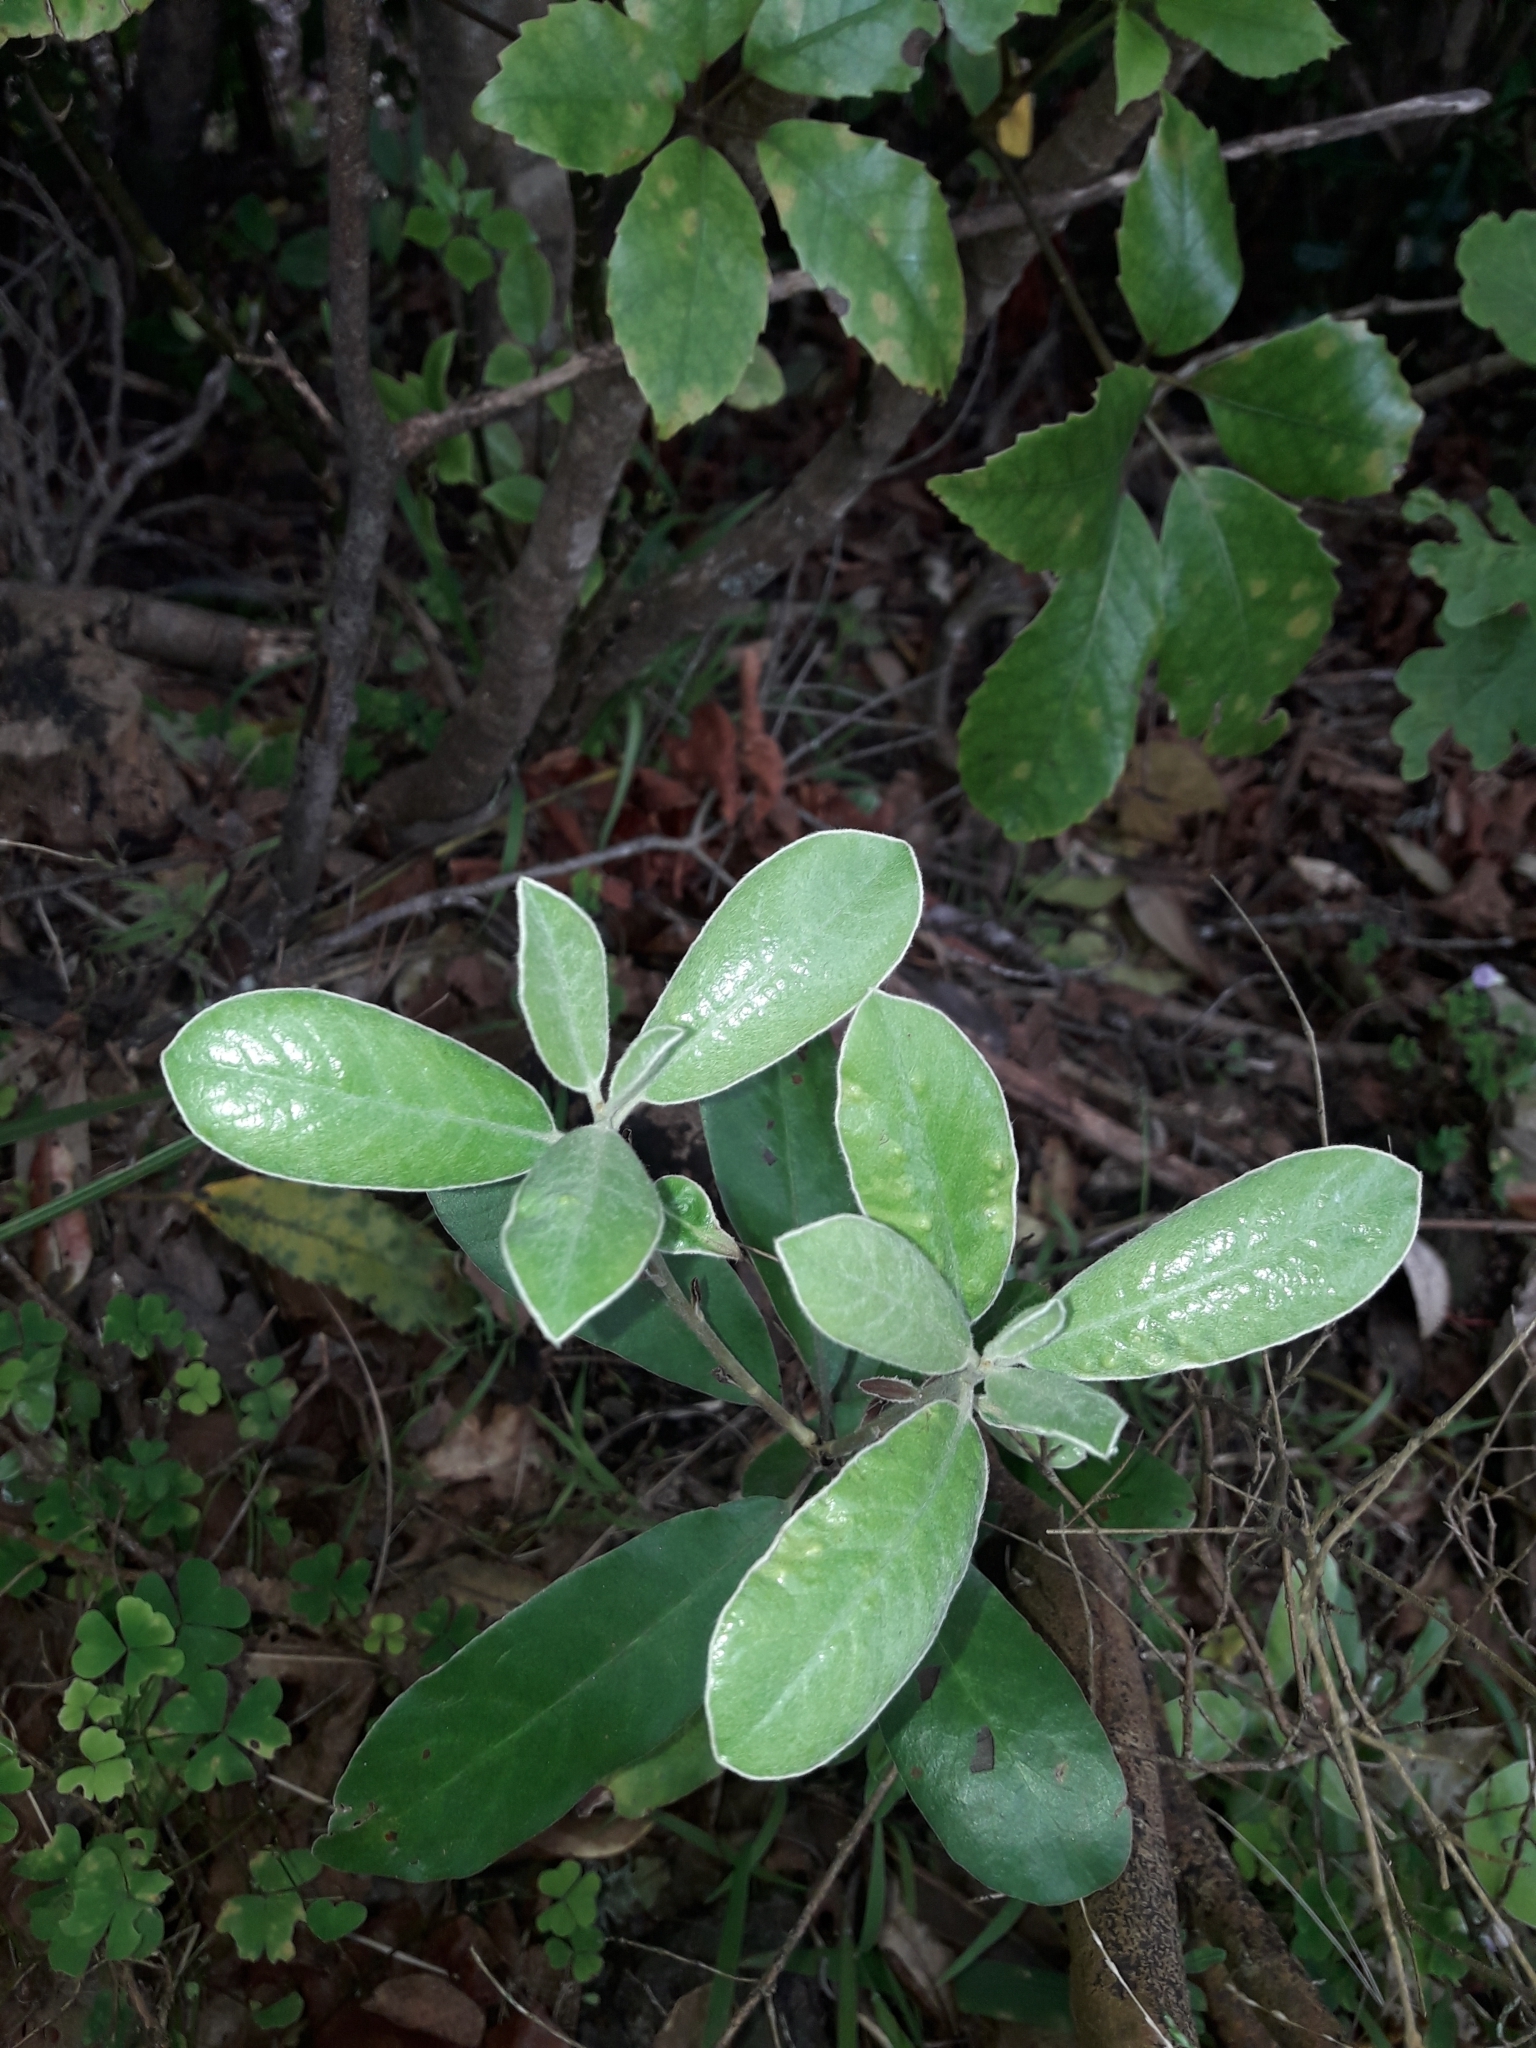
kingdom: Plantae
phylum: Tracheophyta
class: Magnoliopsida
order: Apiales
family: Pittosporaceae
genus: Pittosporum
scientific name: Pittosporum crassifolium
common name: Karo
